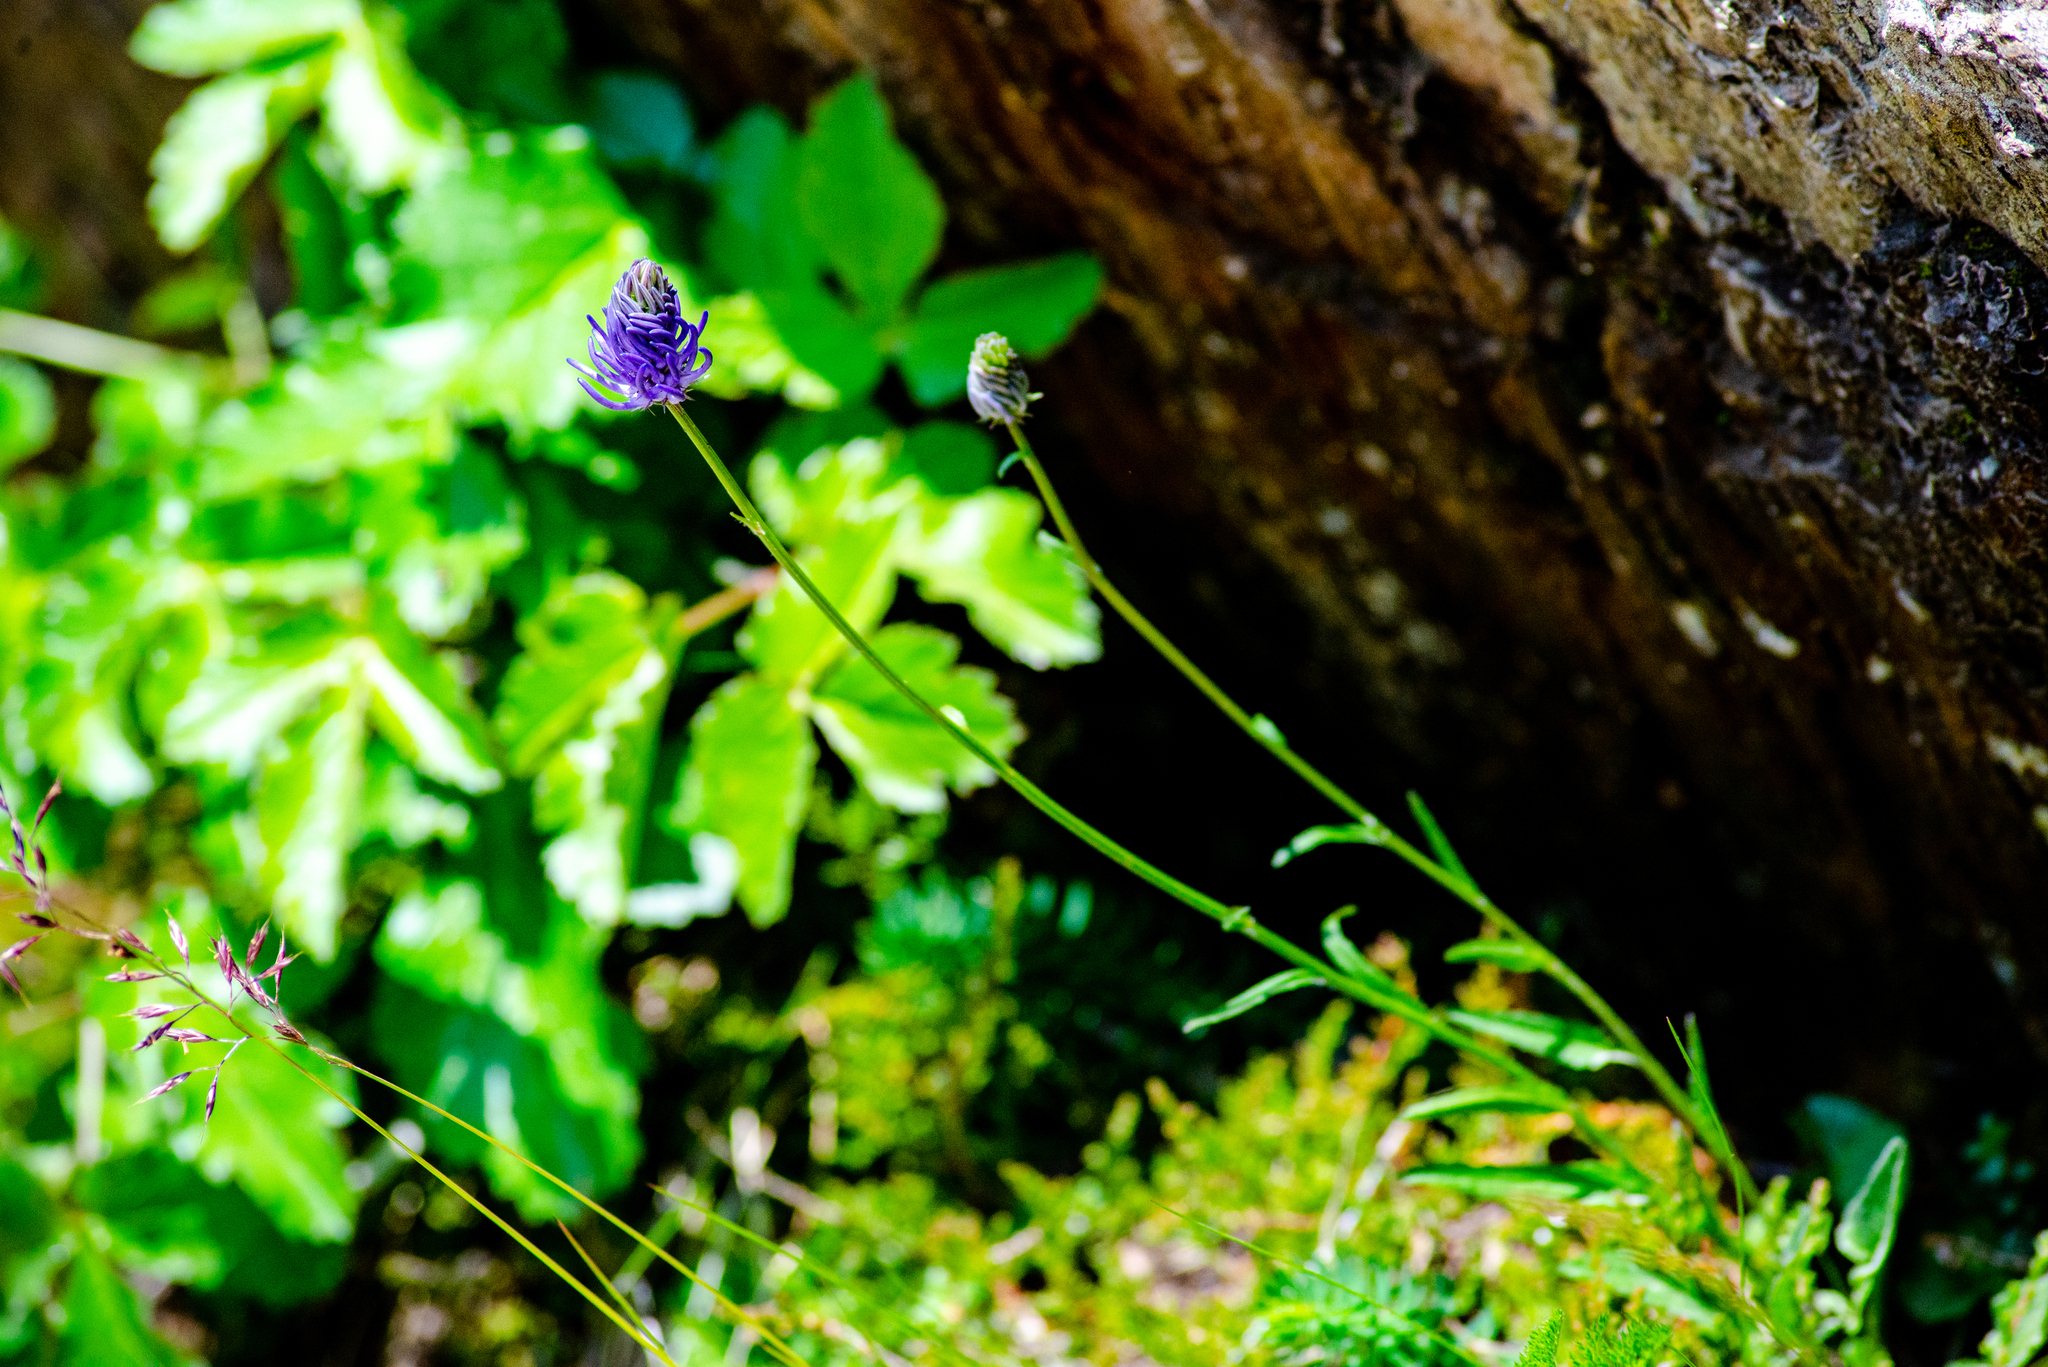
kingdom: Plantae
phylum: Tracheophyta
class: Magnoliopsida
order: Asterales
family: Campanulaceae
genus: Phyteuma
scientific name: Phyteuma betonicifolium
